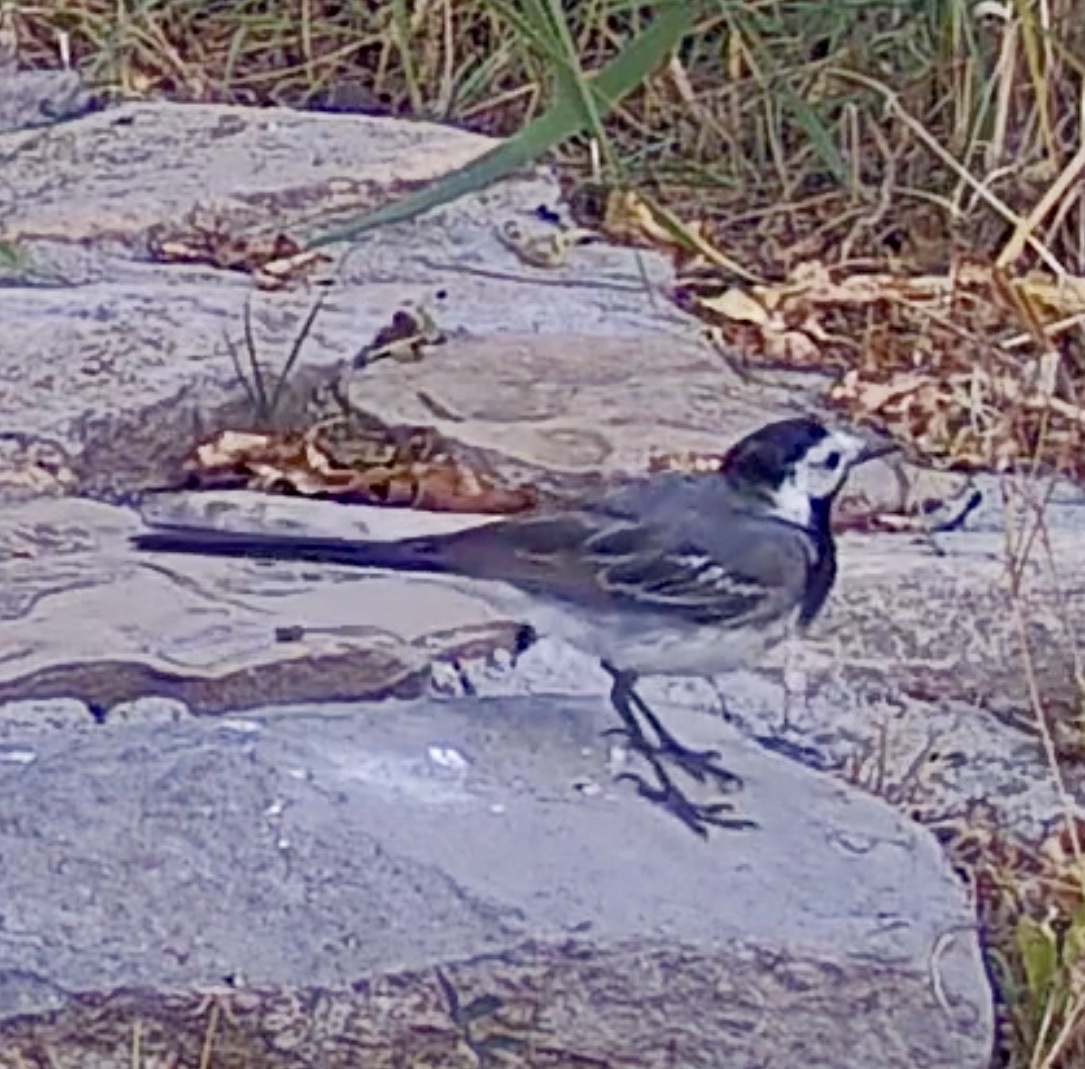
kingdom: Animalia
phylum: Chordata
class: Aves
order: Passeriformes
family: Motacillidae
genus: Motacilla
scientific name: Motacilla alba
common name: White wagtail
